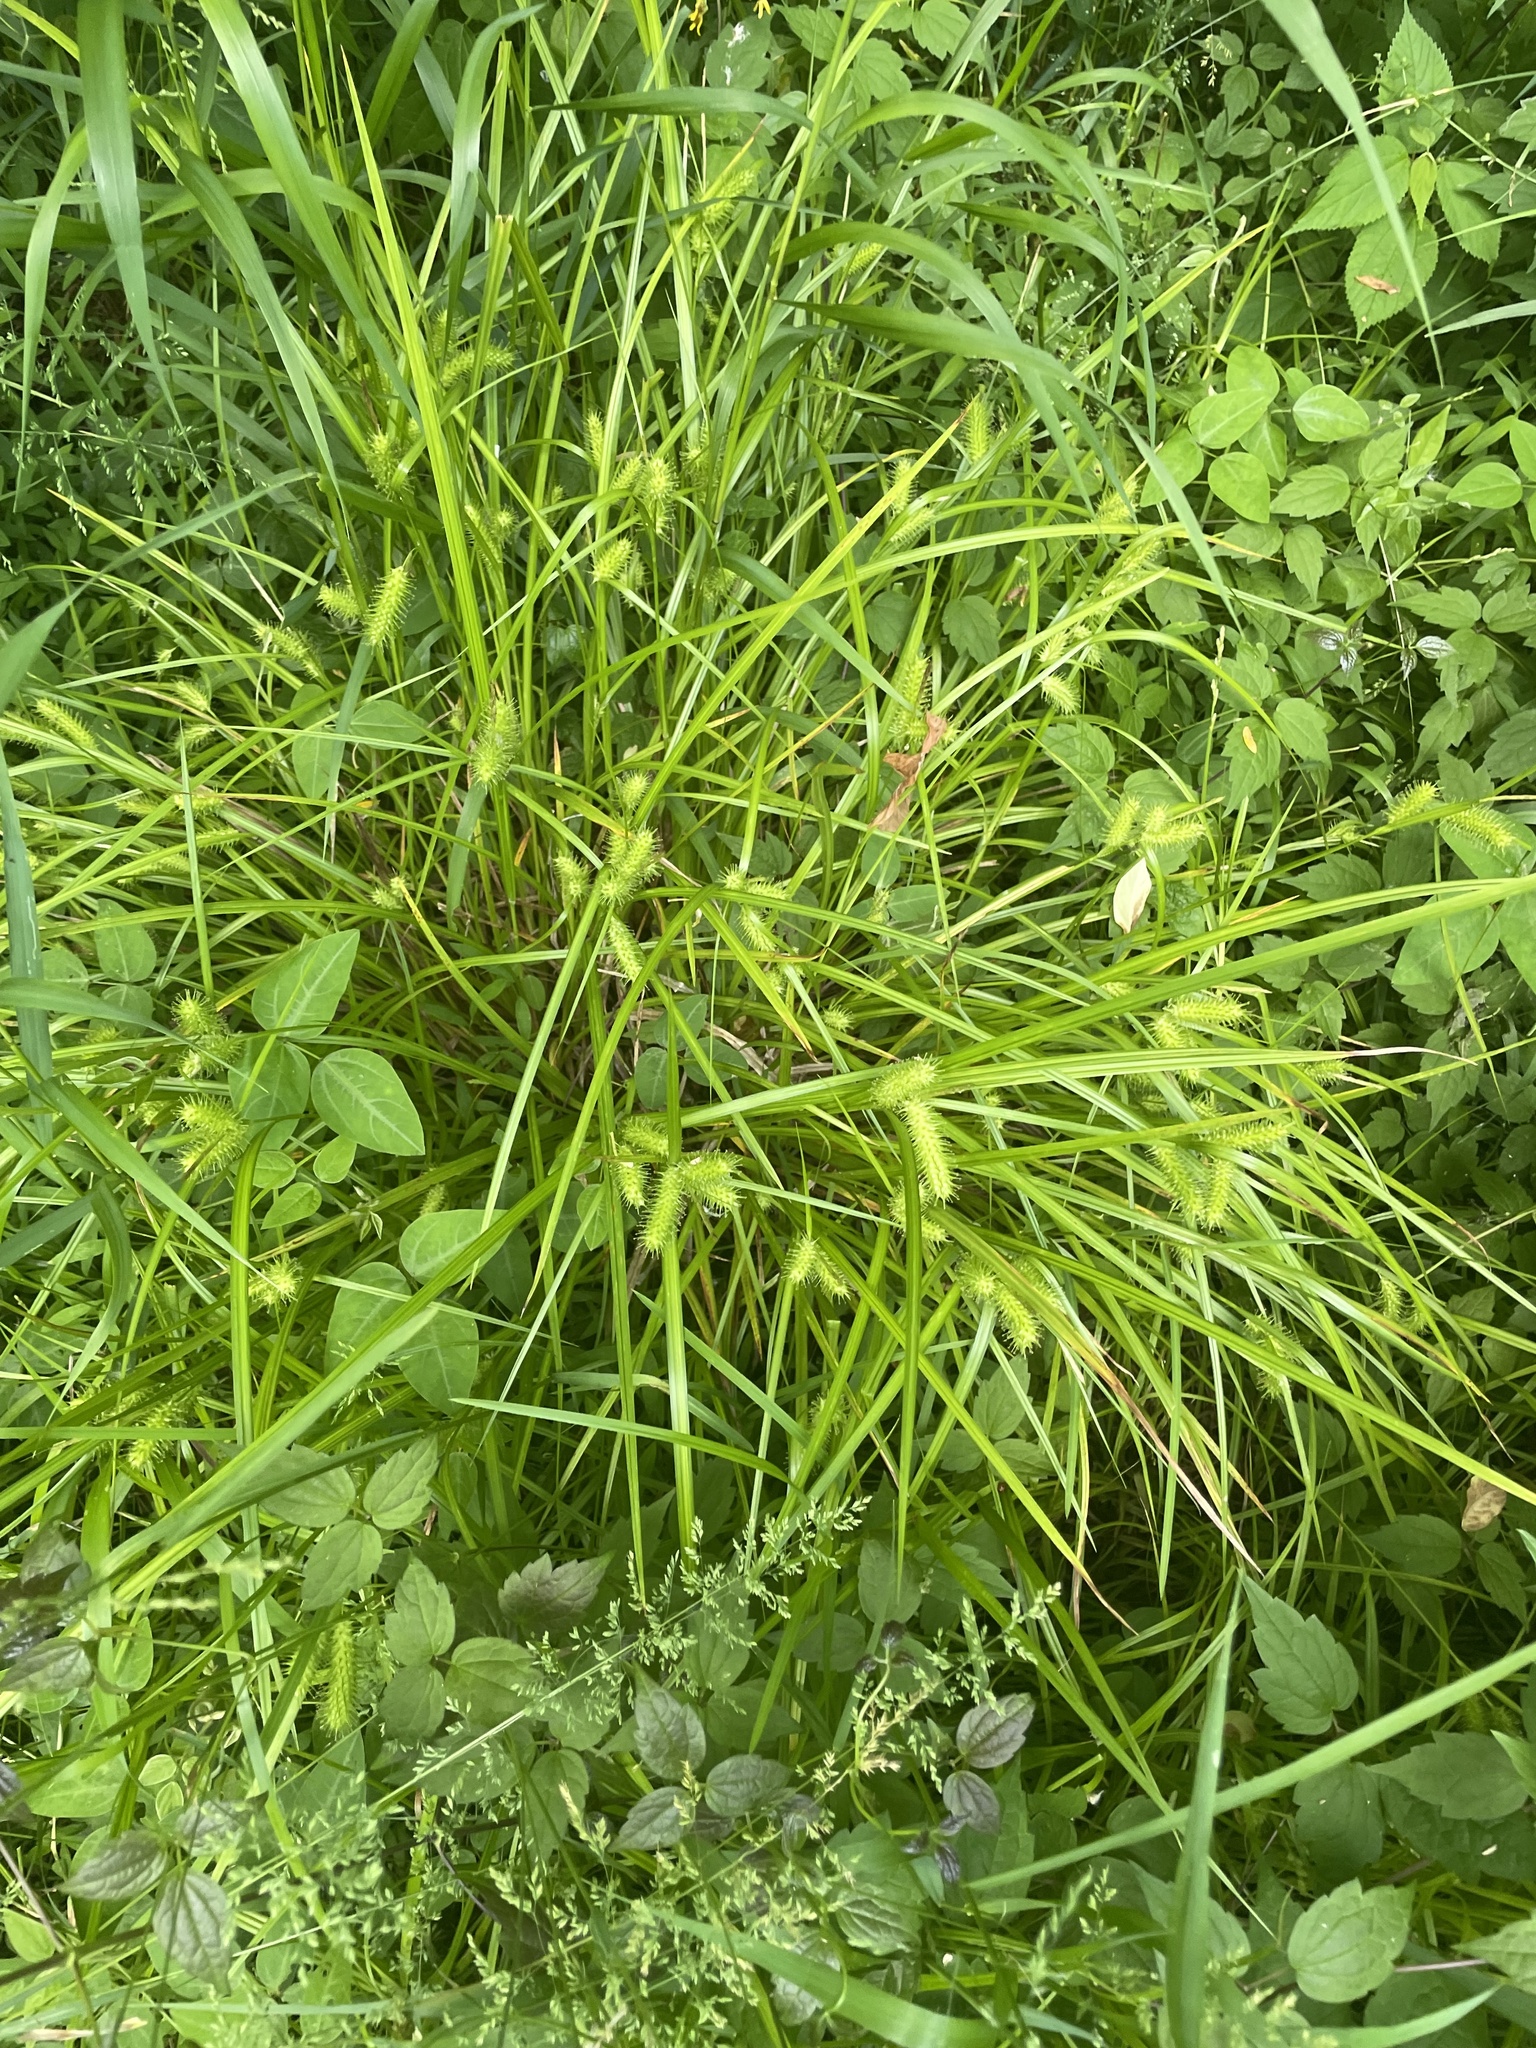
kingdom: Plantae
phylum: Tracheophyta
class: Liliopsida
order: Poales
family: Cyperaceae
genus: Carex
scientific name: Carex lurida
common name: Sallow sedge
